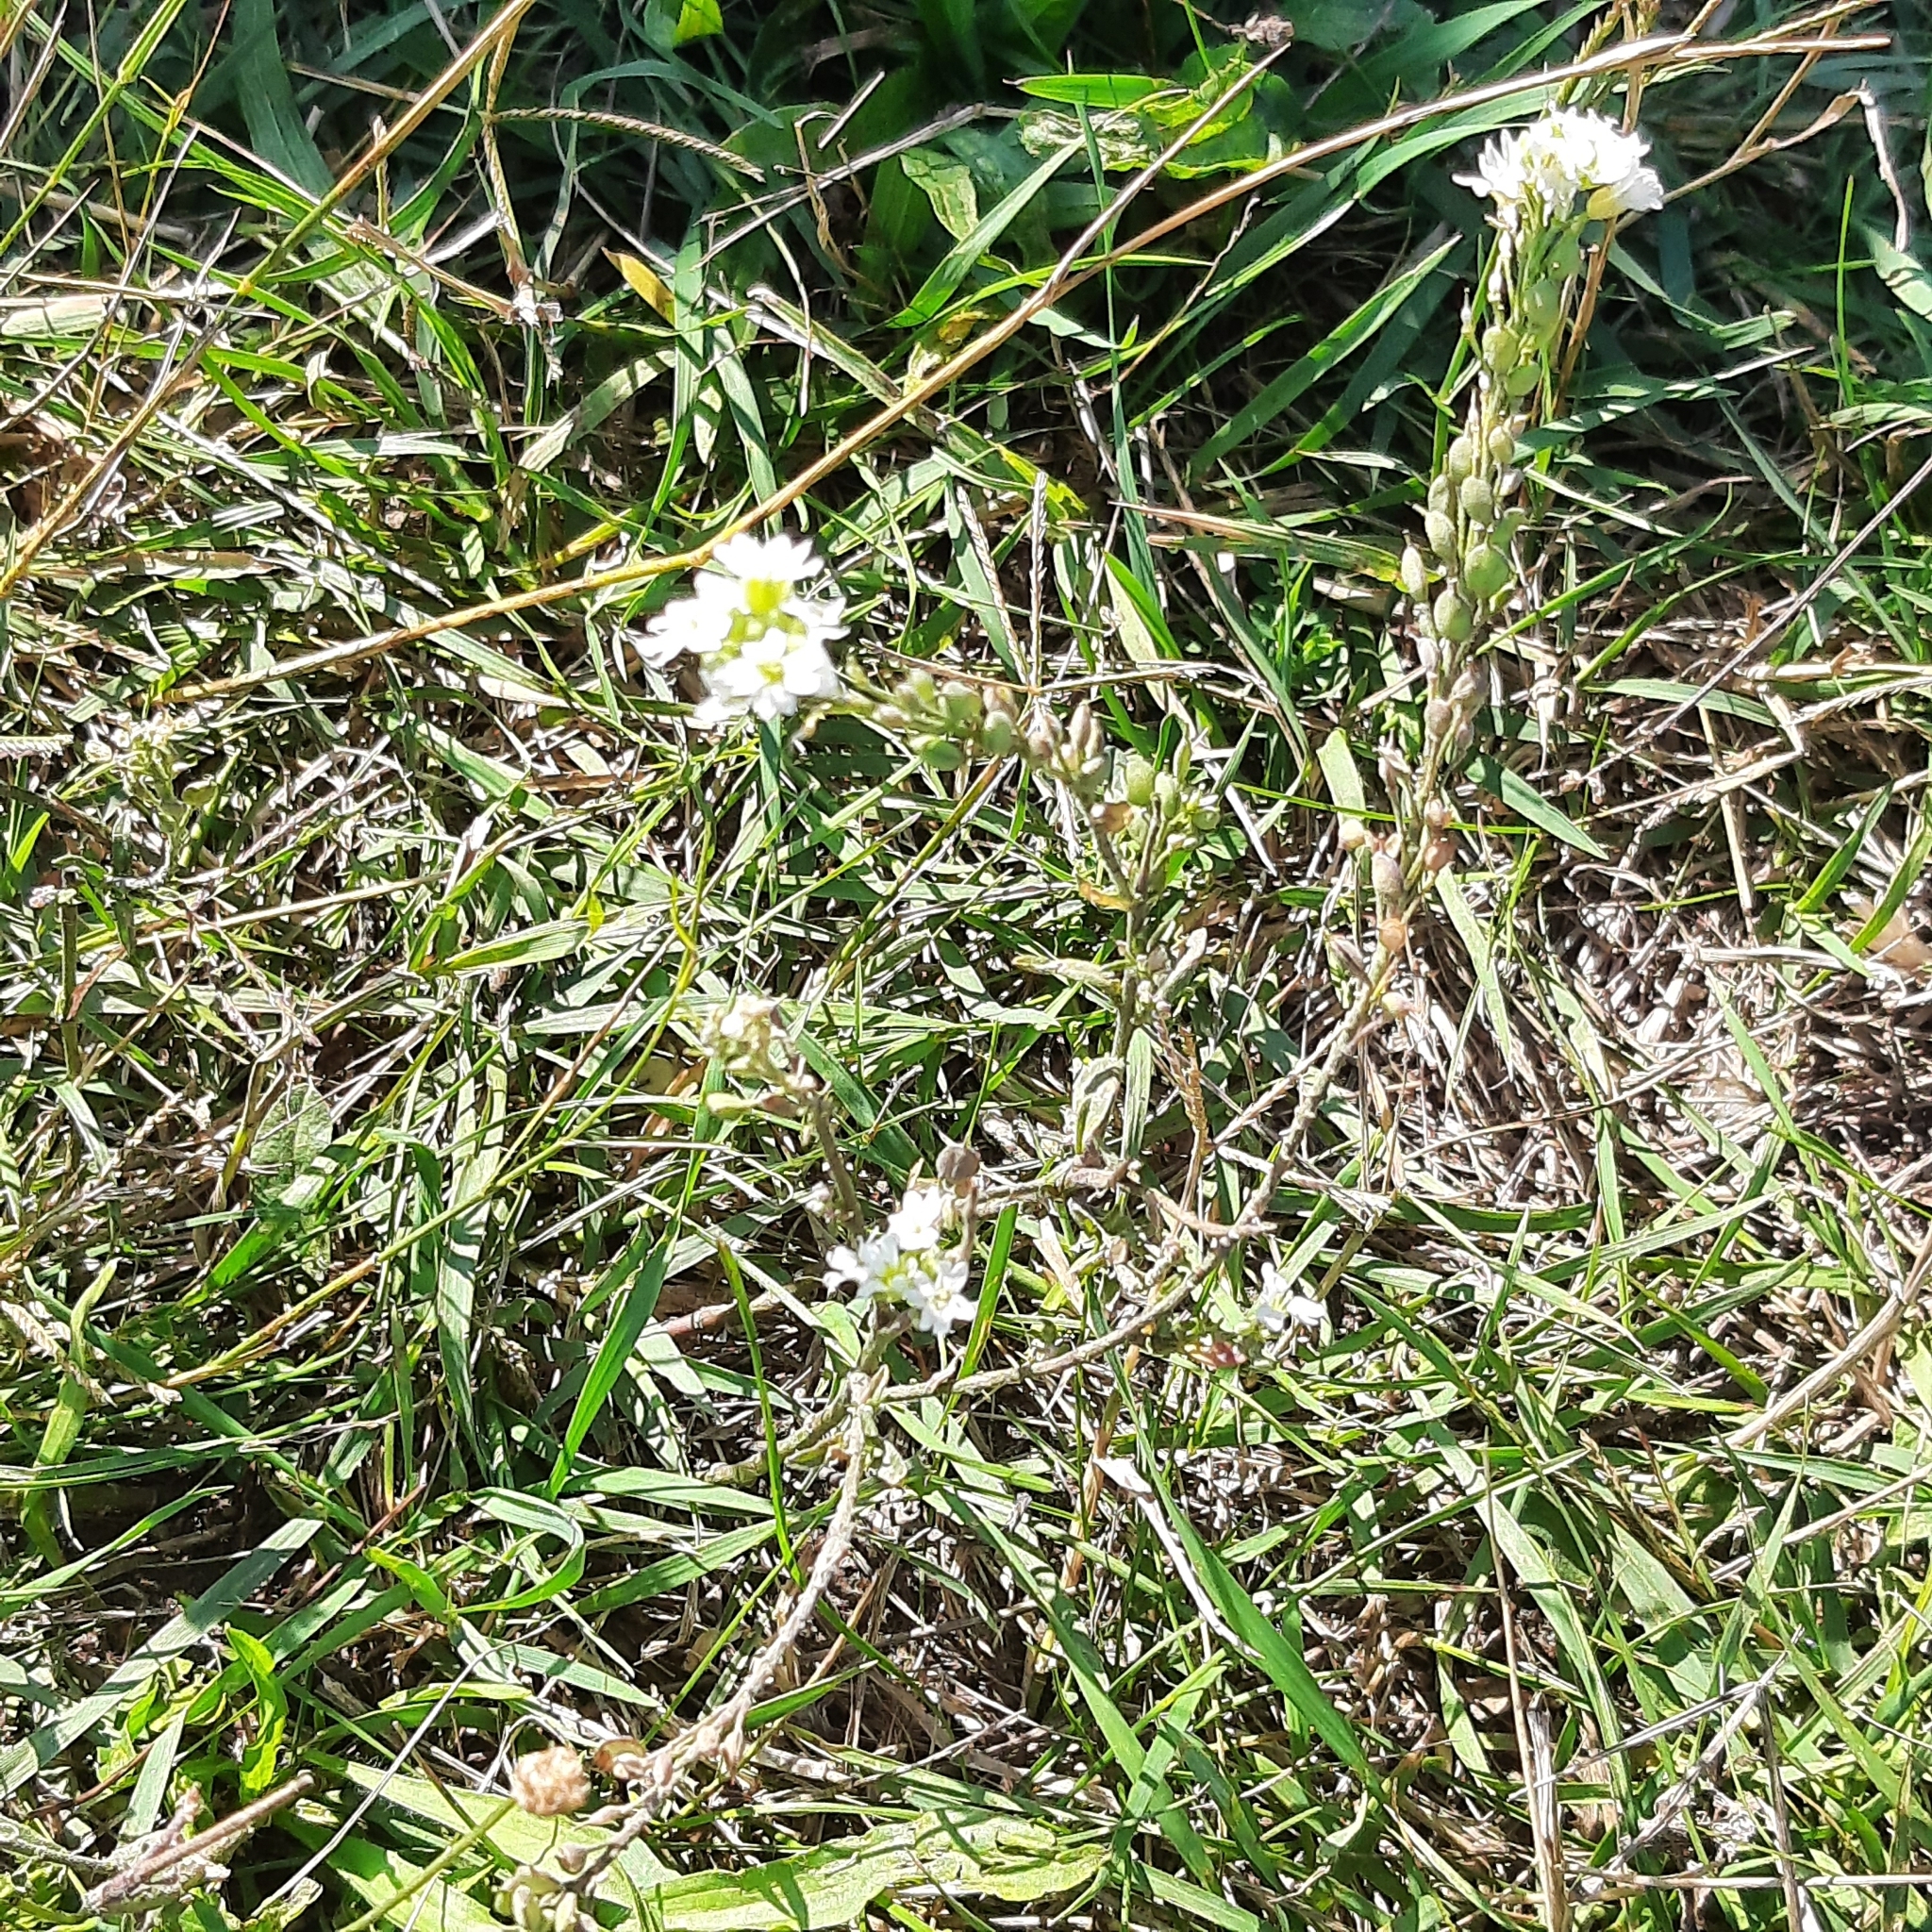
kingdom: Plantae
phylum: Tracheophyta
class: Magnoliopsida
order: Brassicales
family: Brassicaceae
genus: Berteroa
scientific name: Berteroa incana
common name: Hoary alison
